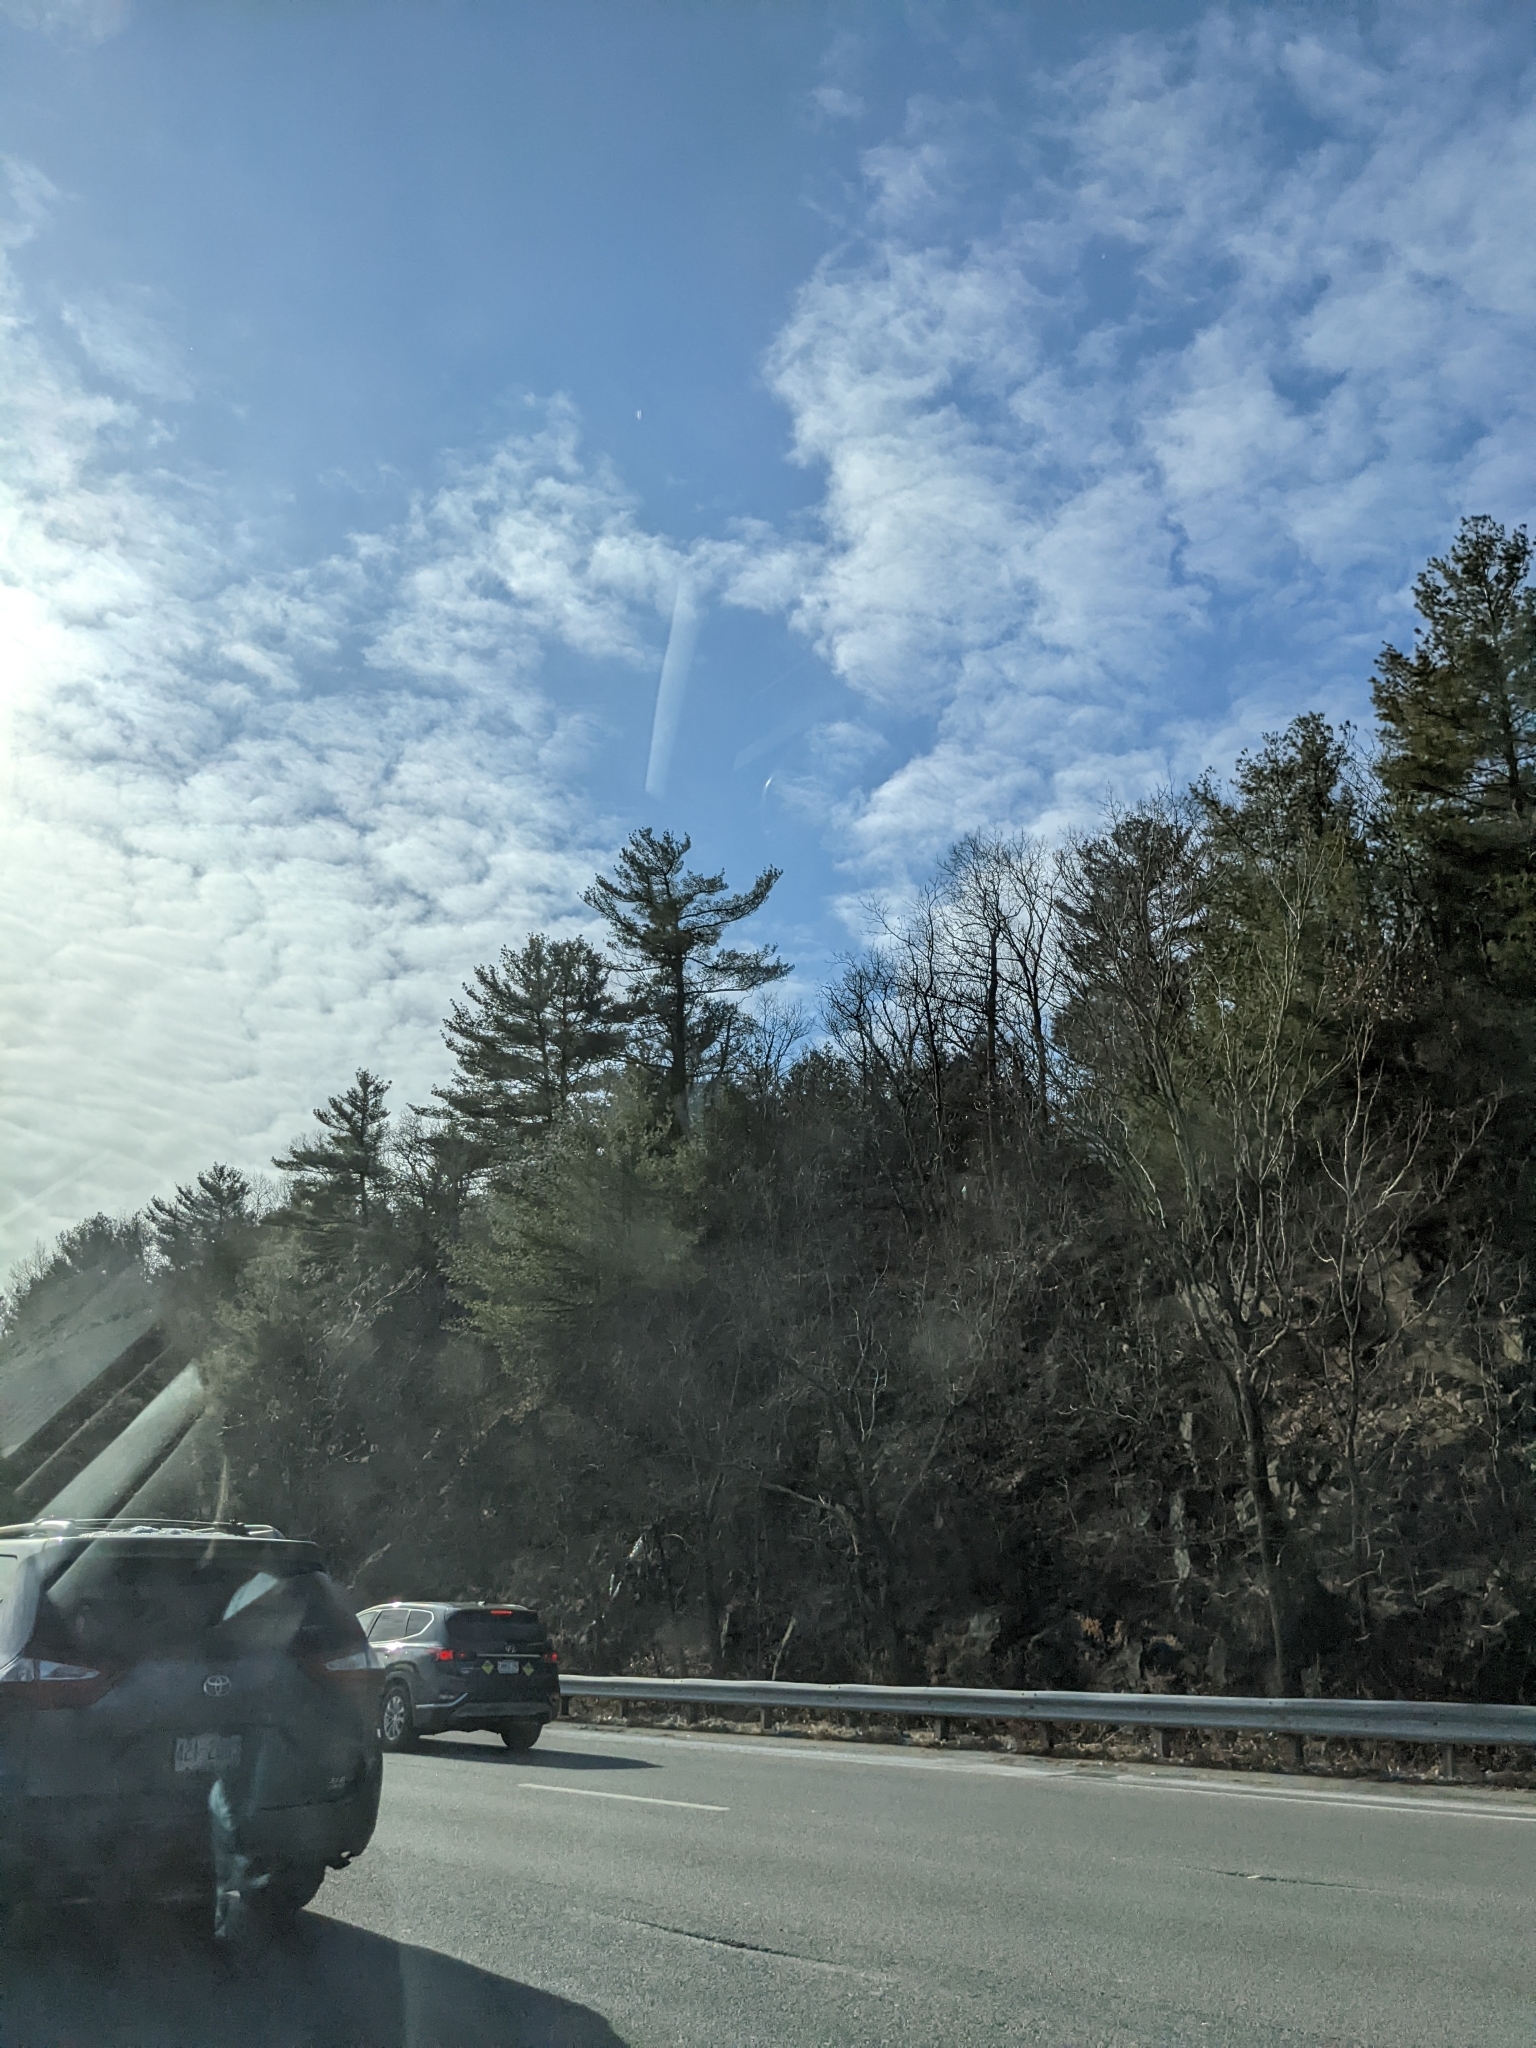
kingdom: Plantae
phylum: Tracheophyta
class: Pinopsida
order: Pinales
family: Pinaceae
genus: Pinus
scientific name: Pinus strobus
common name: Weymouth pine
